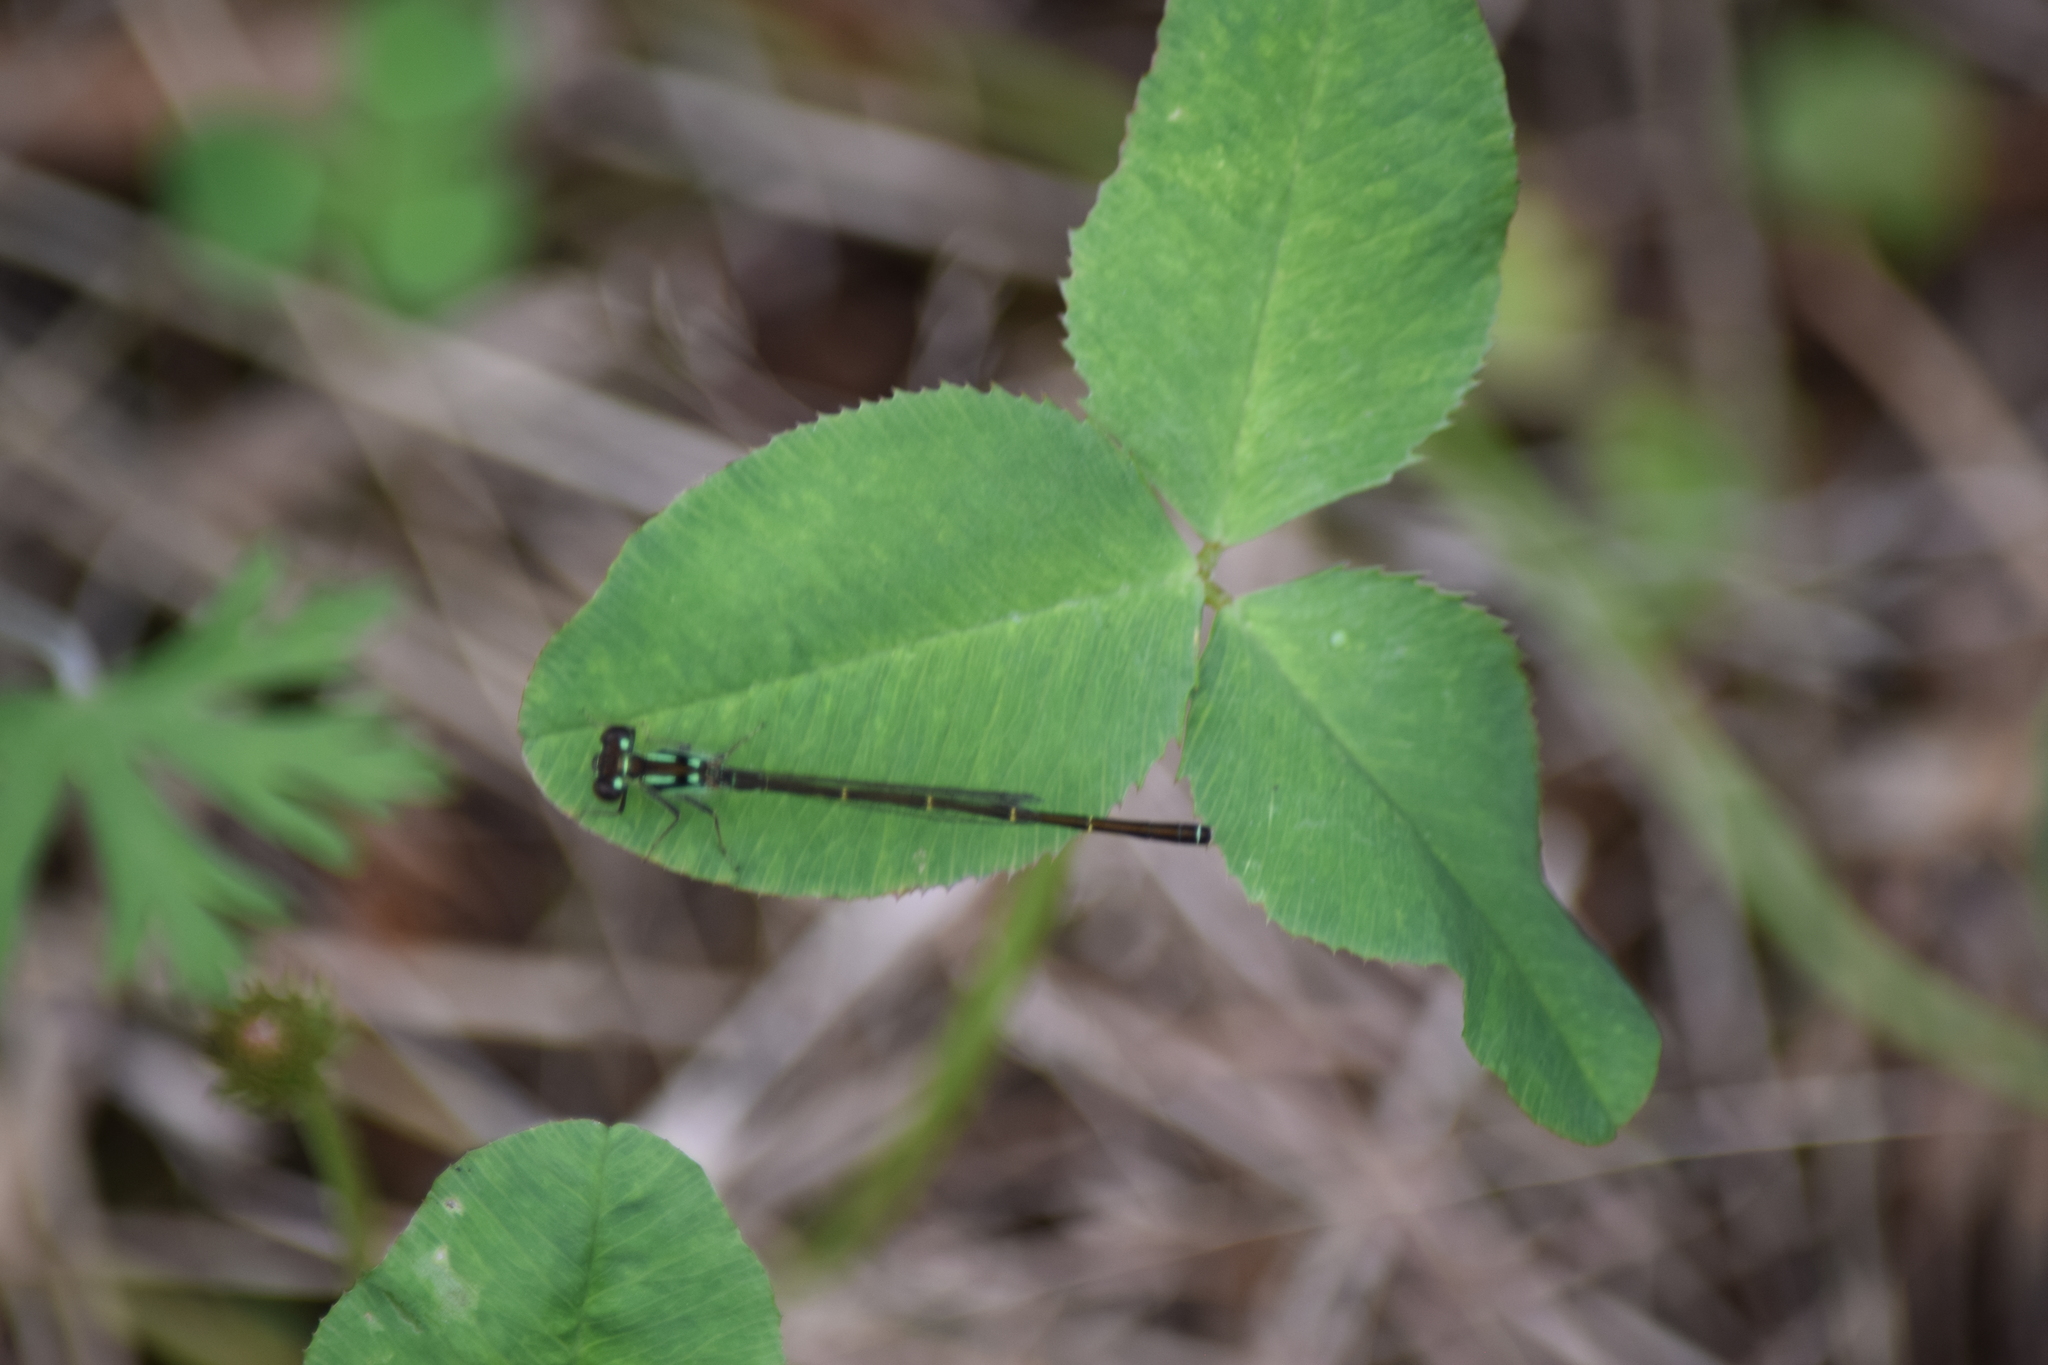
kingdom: Animalia
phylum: Arthropoda
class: Insecta
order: Odonata
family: Coenagrionidae
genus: Ischnura
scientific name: Ischnura posita
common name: Fragile forktail
